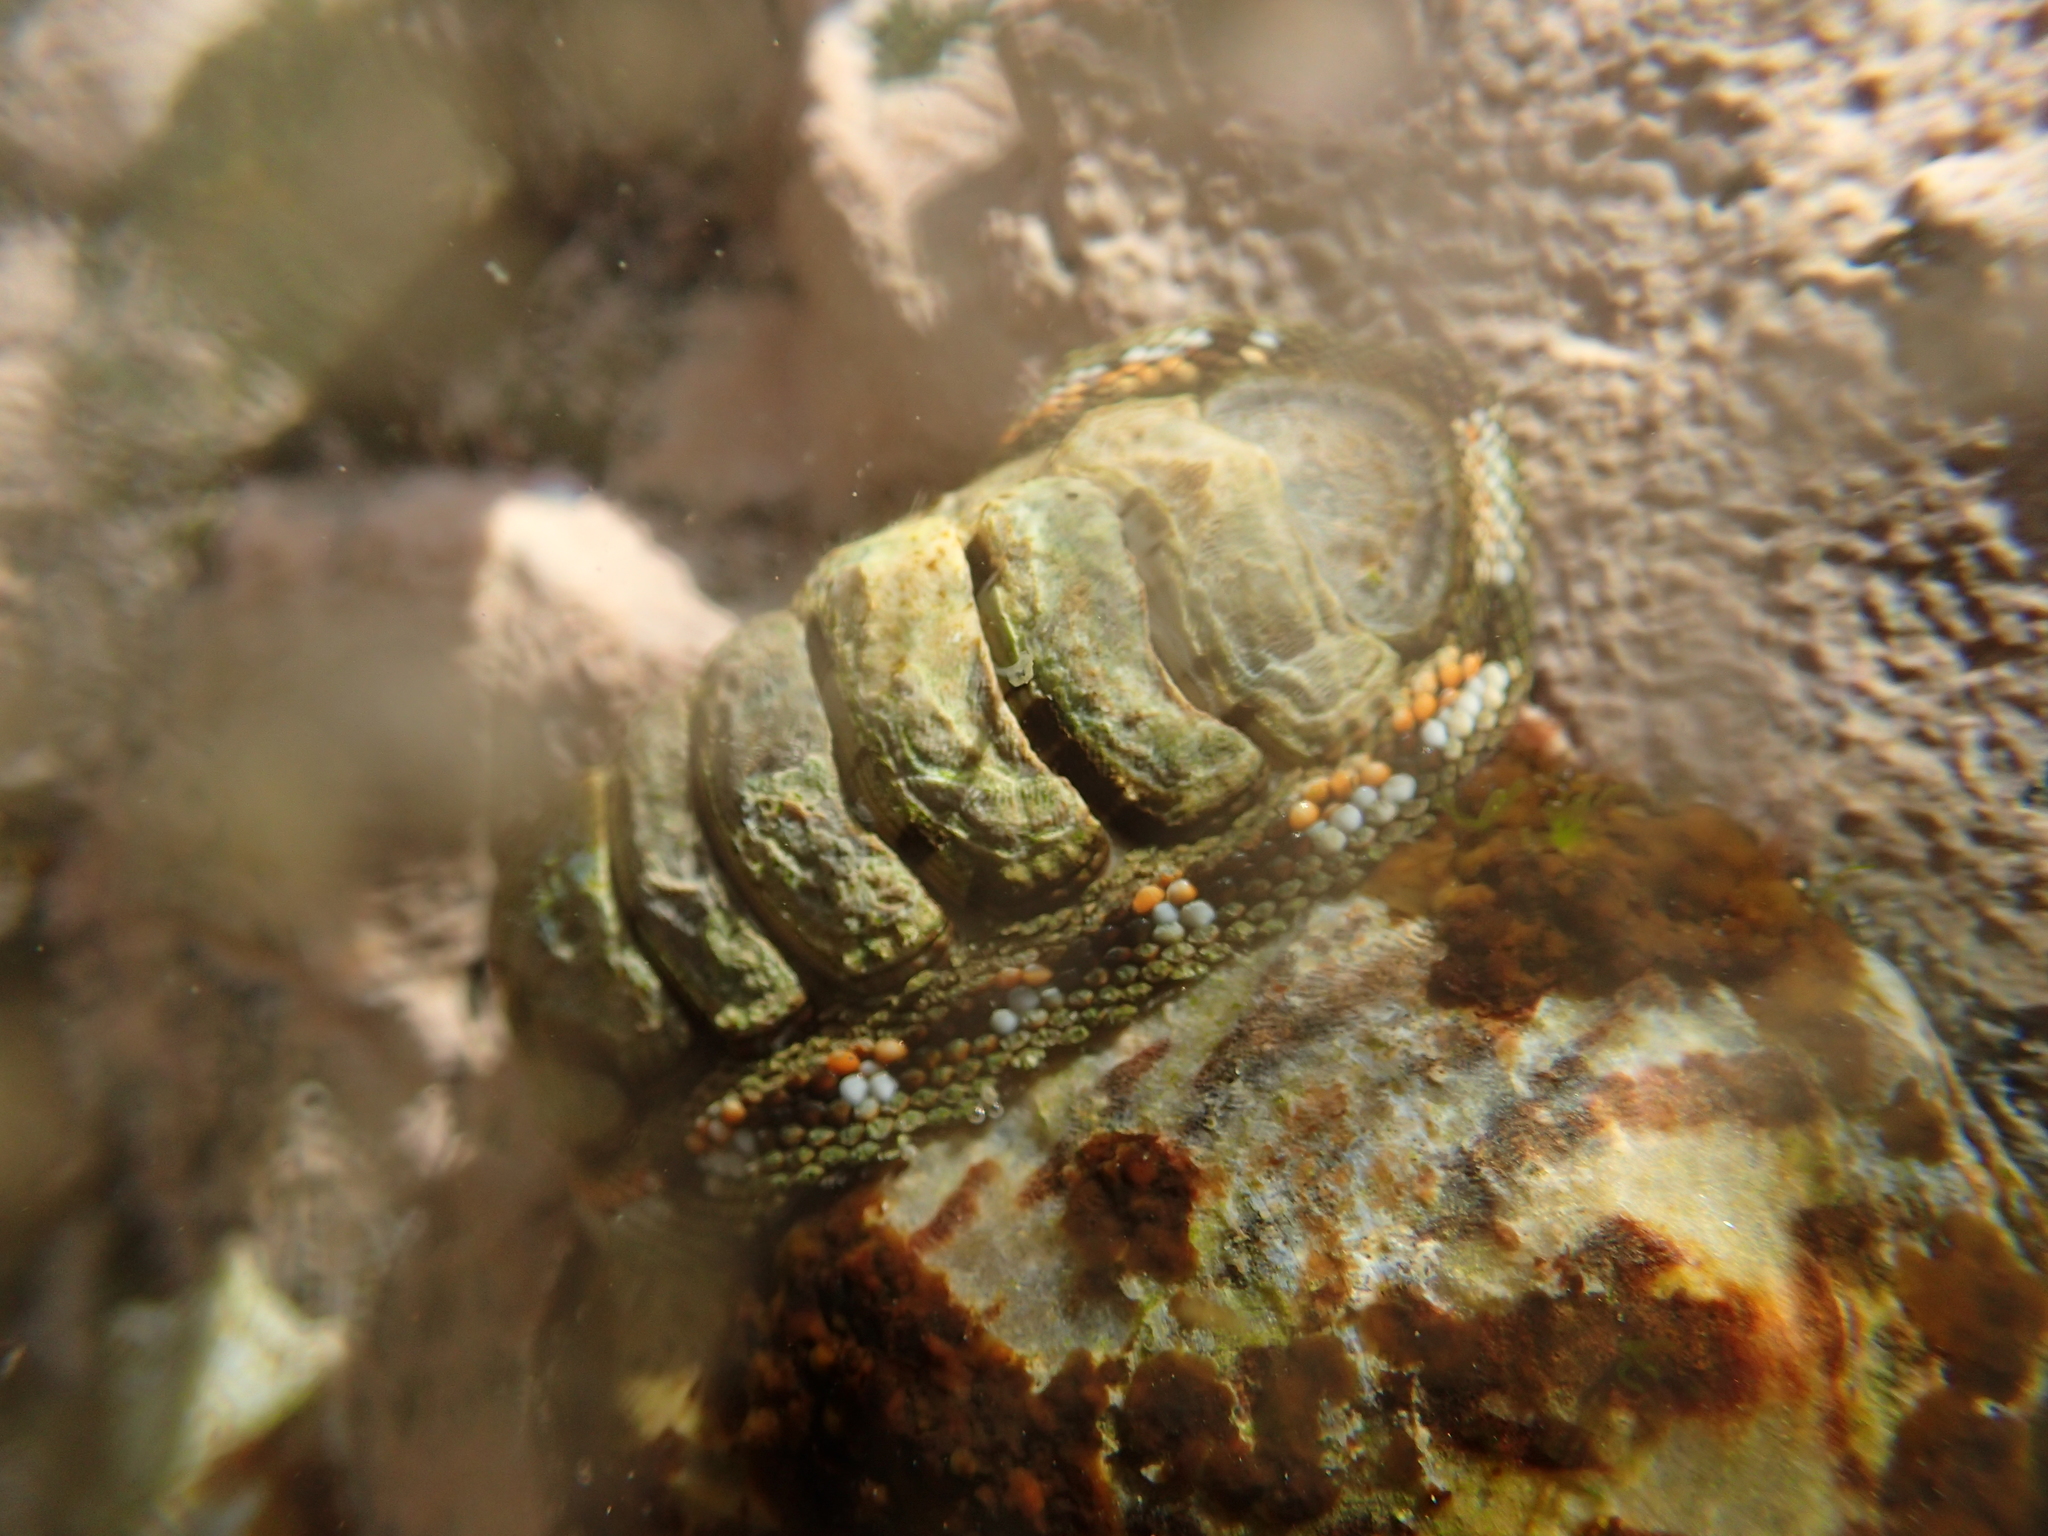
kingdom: Animalia
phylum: Mollusca
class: Polyplacophora
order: Chitonida
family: Chitonidae
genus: Sypharochiton
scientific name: Sypharochiton sinclairi
